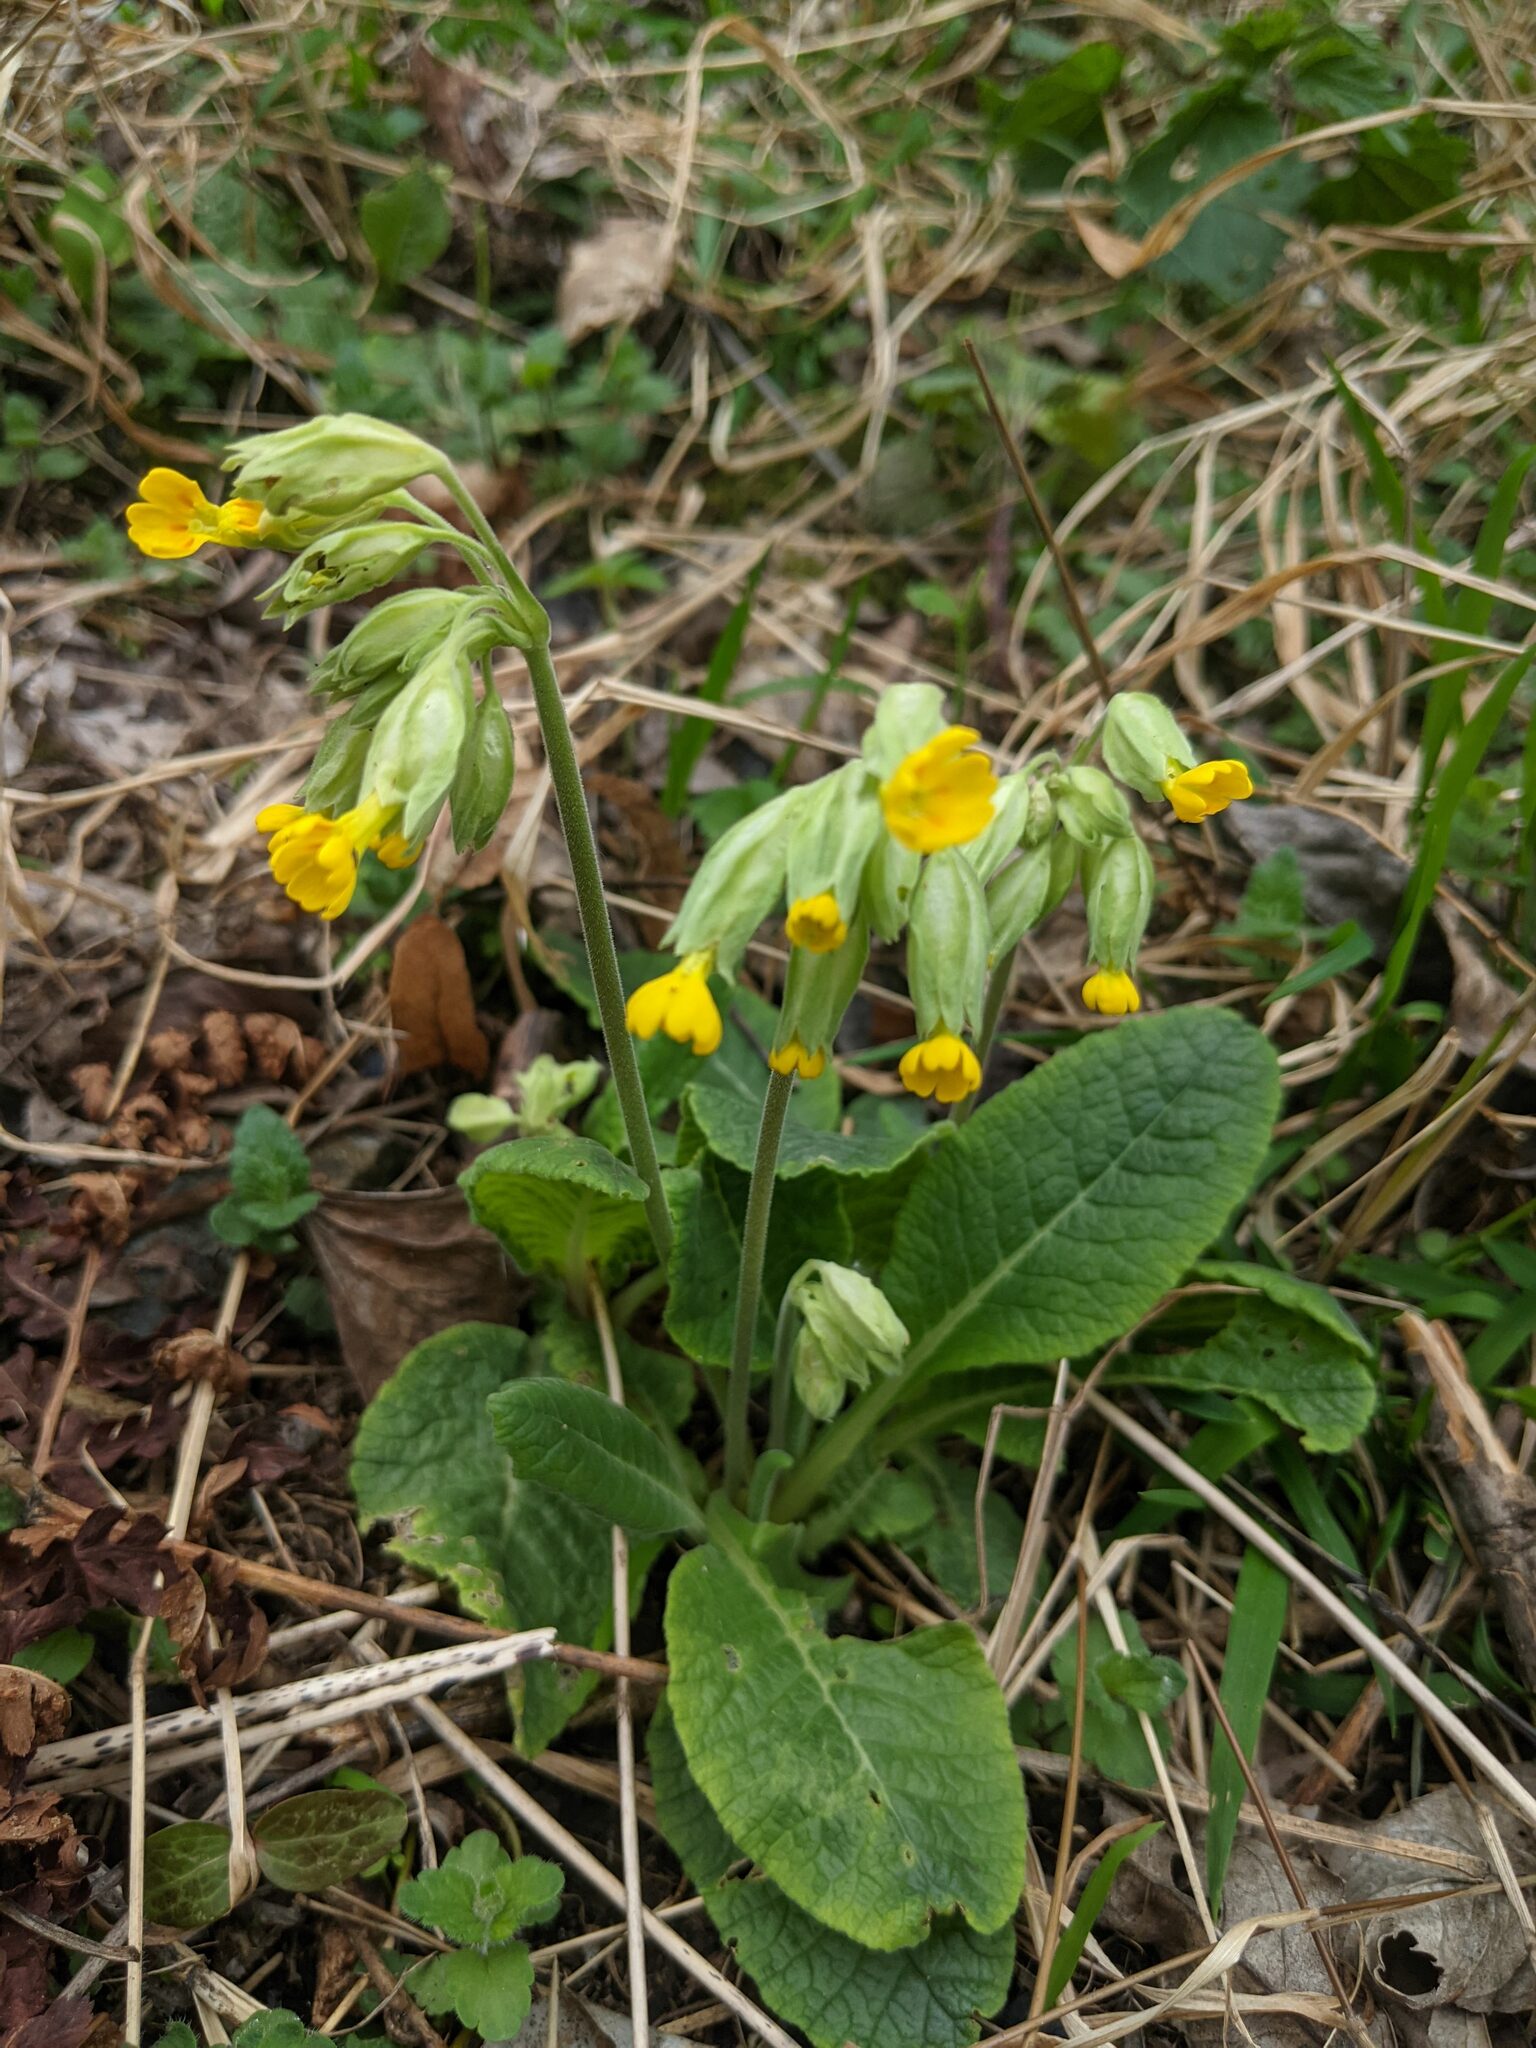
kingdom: Plantae
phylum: Tracheophyta
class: Magnoliopsida
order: Ericales
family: Primulaceae
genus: Primula
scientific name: Primula veris
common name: Cowslip
